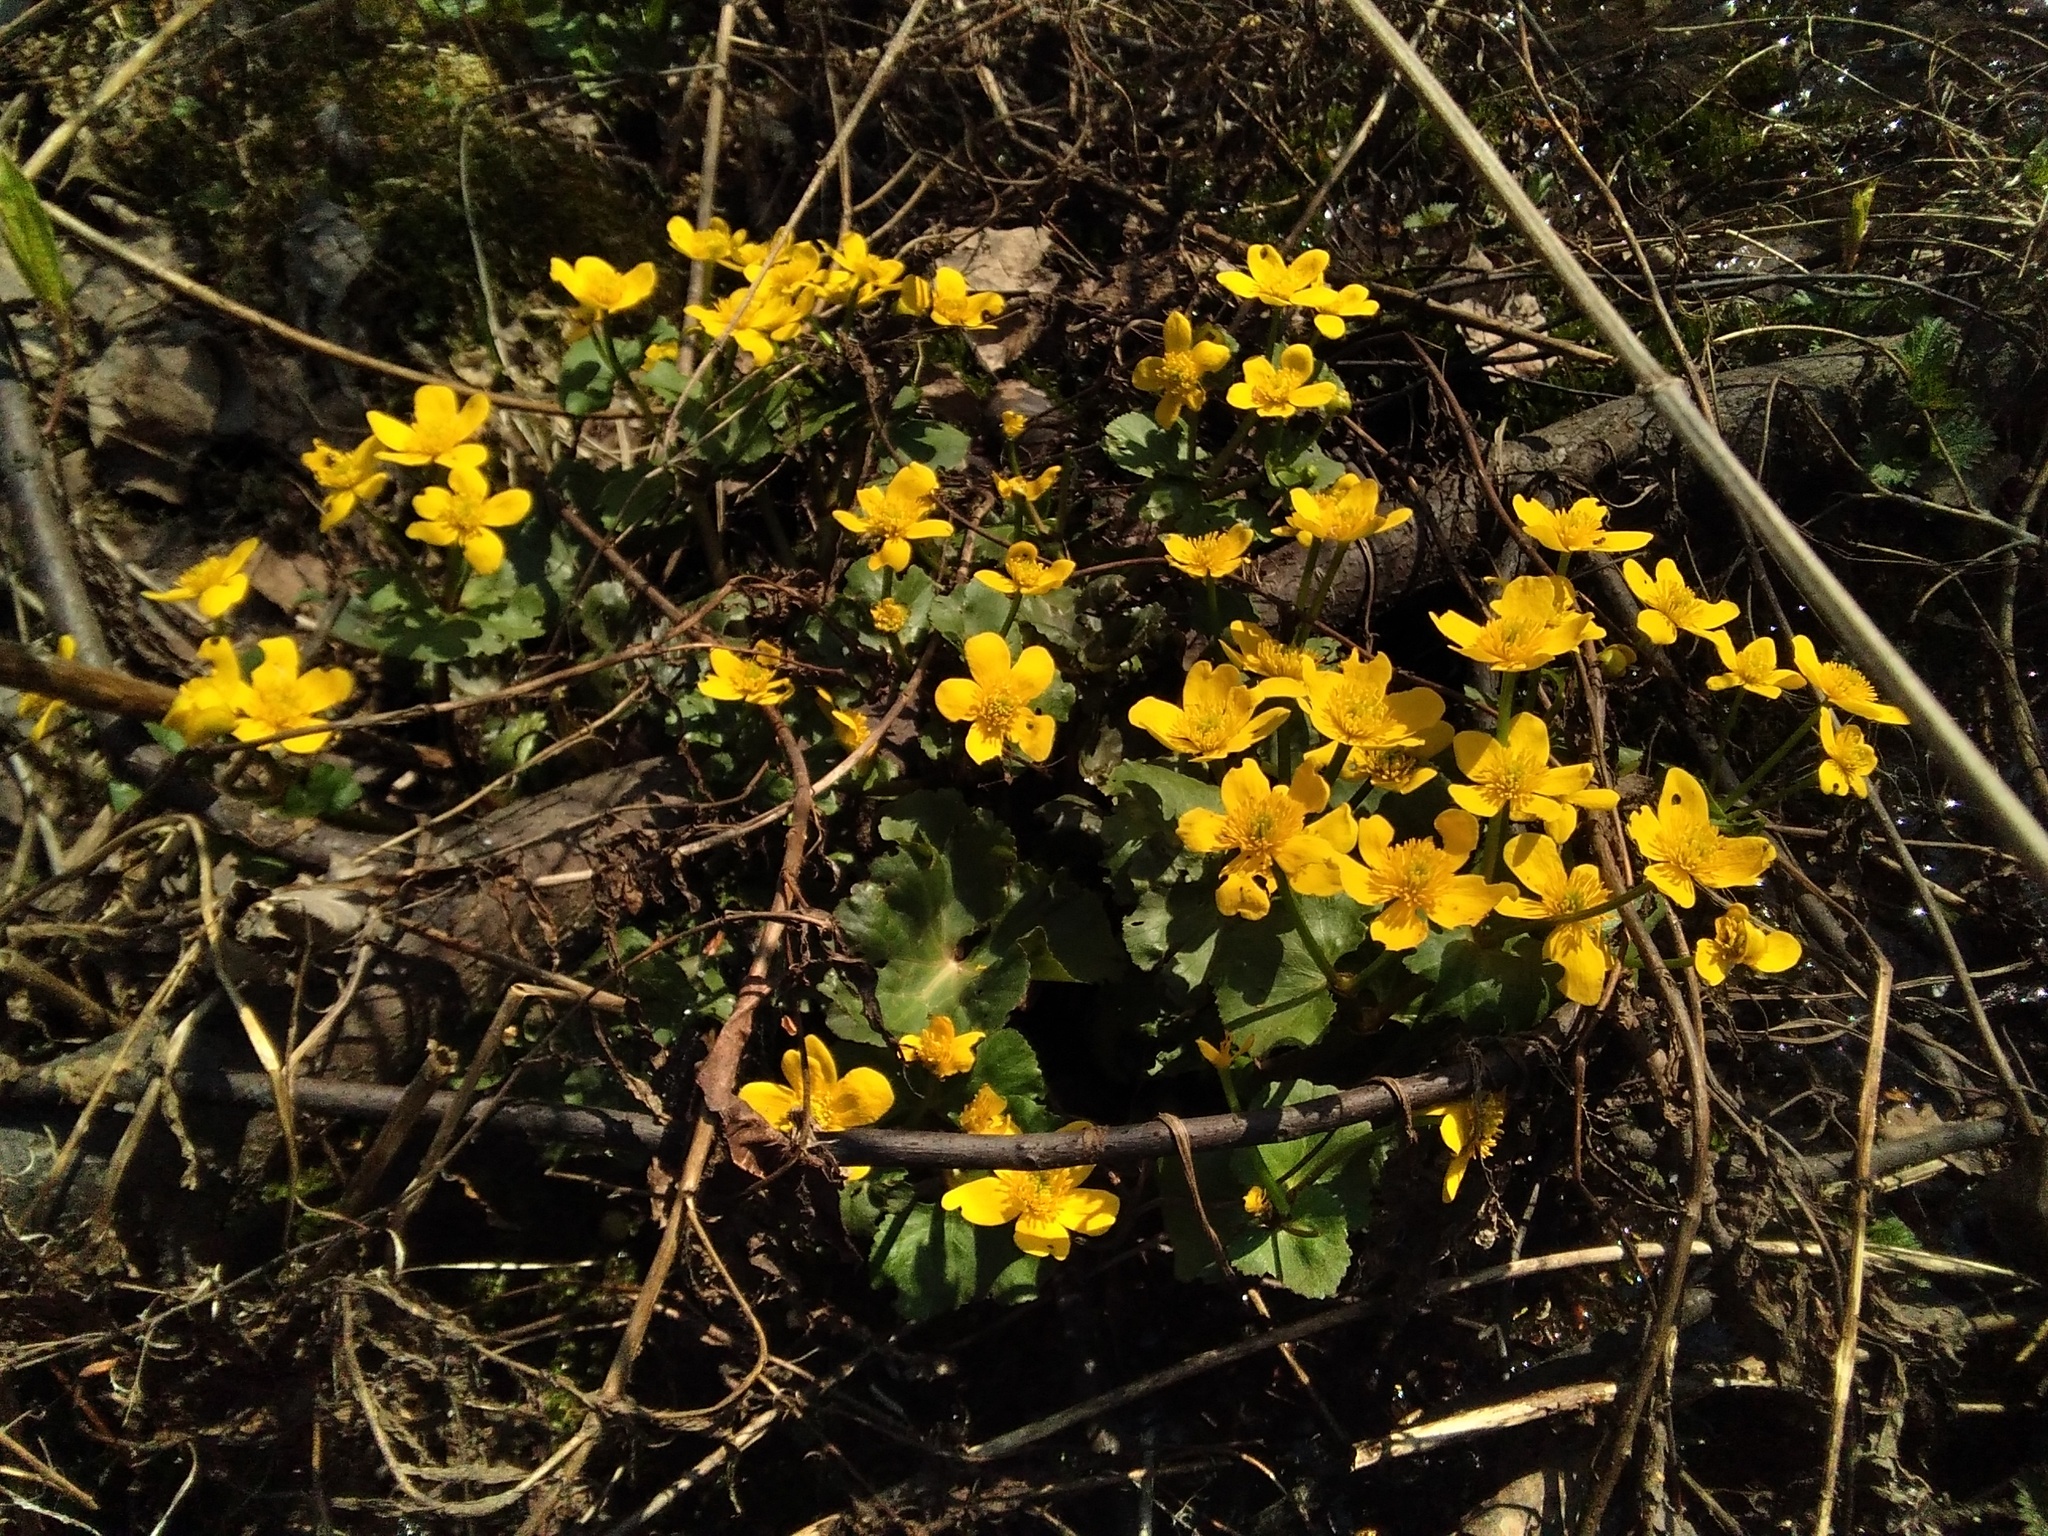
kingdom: Plantae
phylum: Tracheophyta
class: Magnoliopsida
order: Ranunculales
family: Ranunculaceae
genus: Caltha
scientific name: Caltha palustris
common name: Marsh marigold
